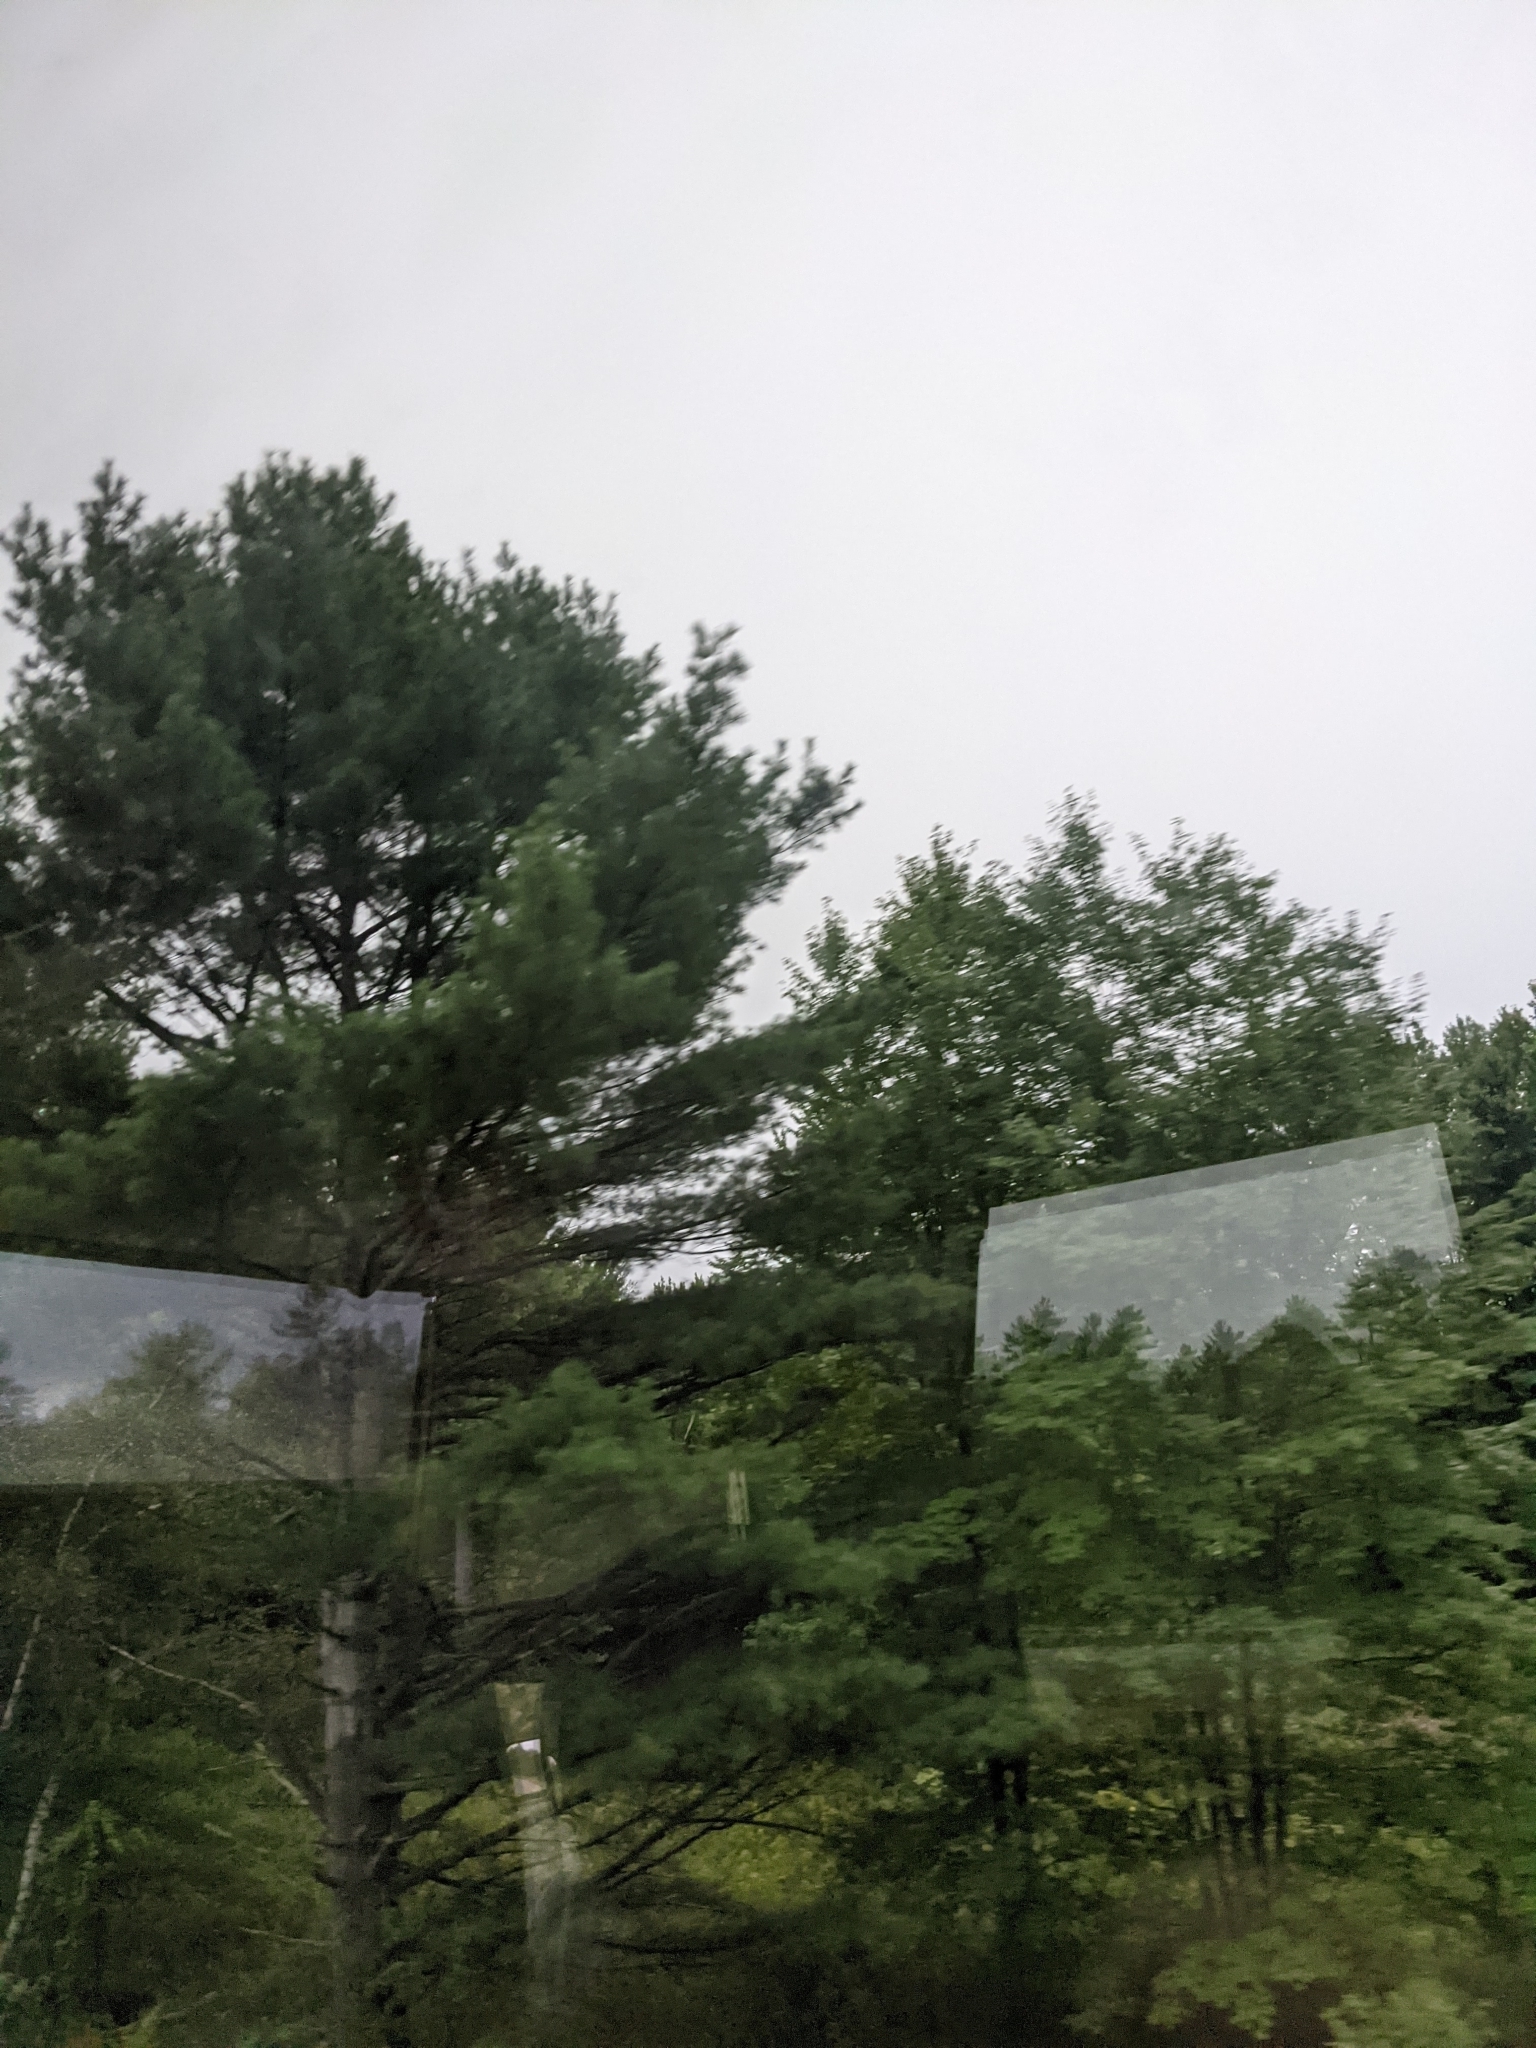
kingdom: Plantae
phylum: Tracheophyta
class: Pinopsida
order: Pinales
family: Pinaceae
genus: Pinus
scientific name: Pinus strobus
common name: Weymouth pine
